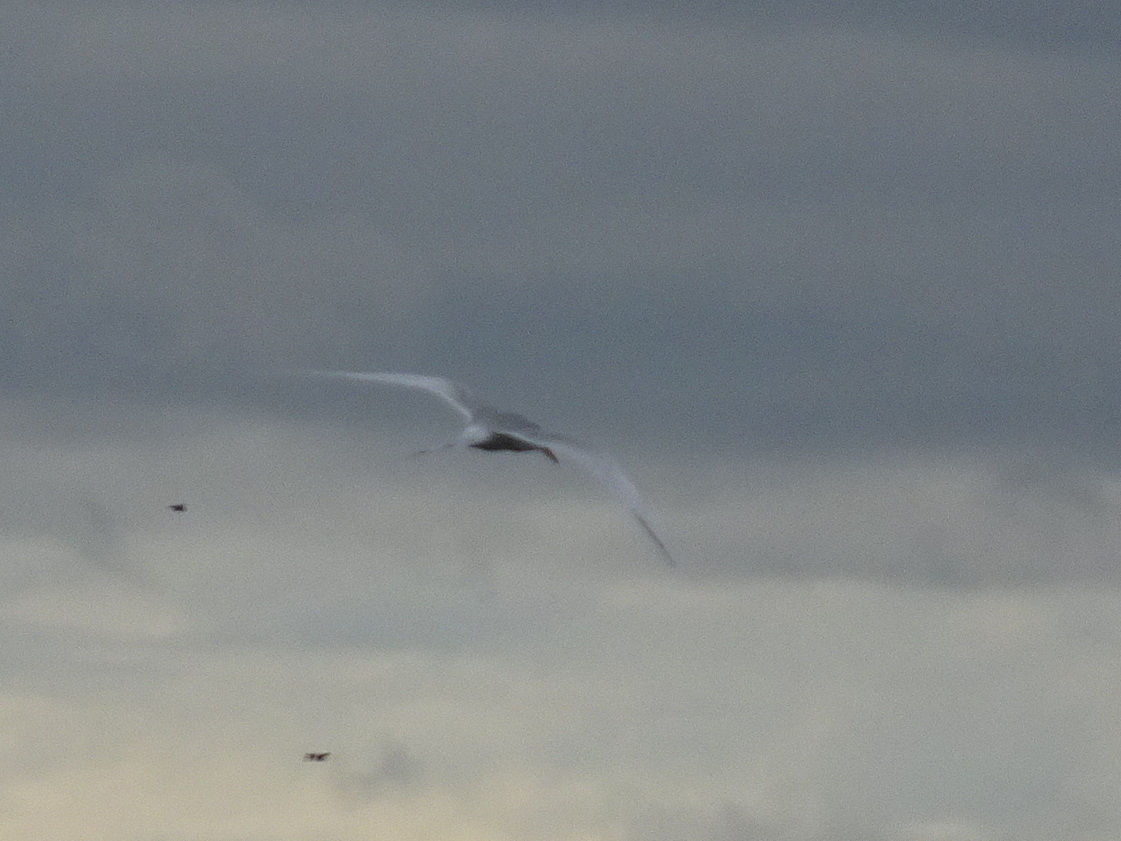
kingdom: Animalia
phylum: Chordata
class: Aves
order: Charadriiformes
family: Laridae
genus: Sterna
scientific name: Sterna forsteri
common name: Forster's tern
